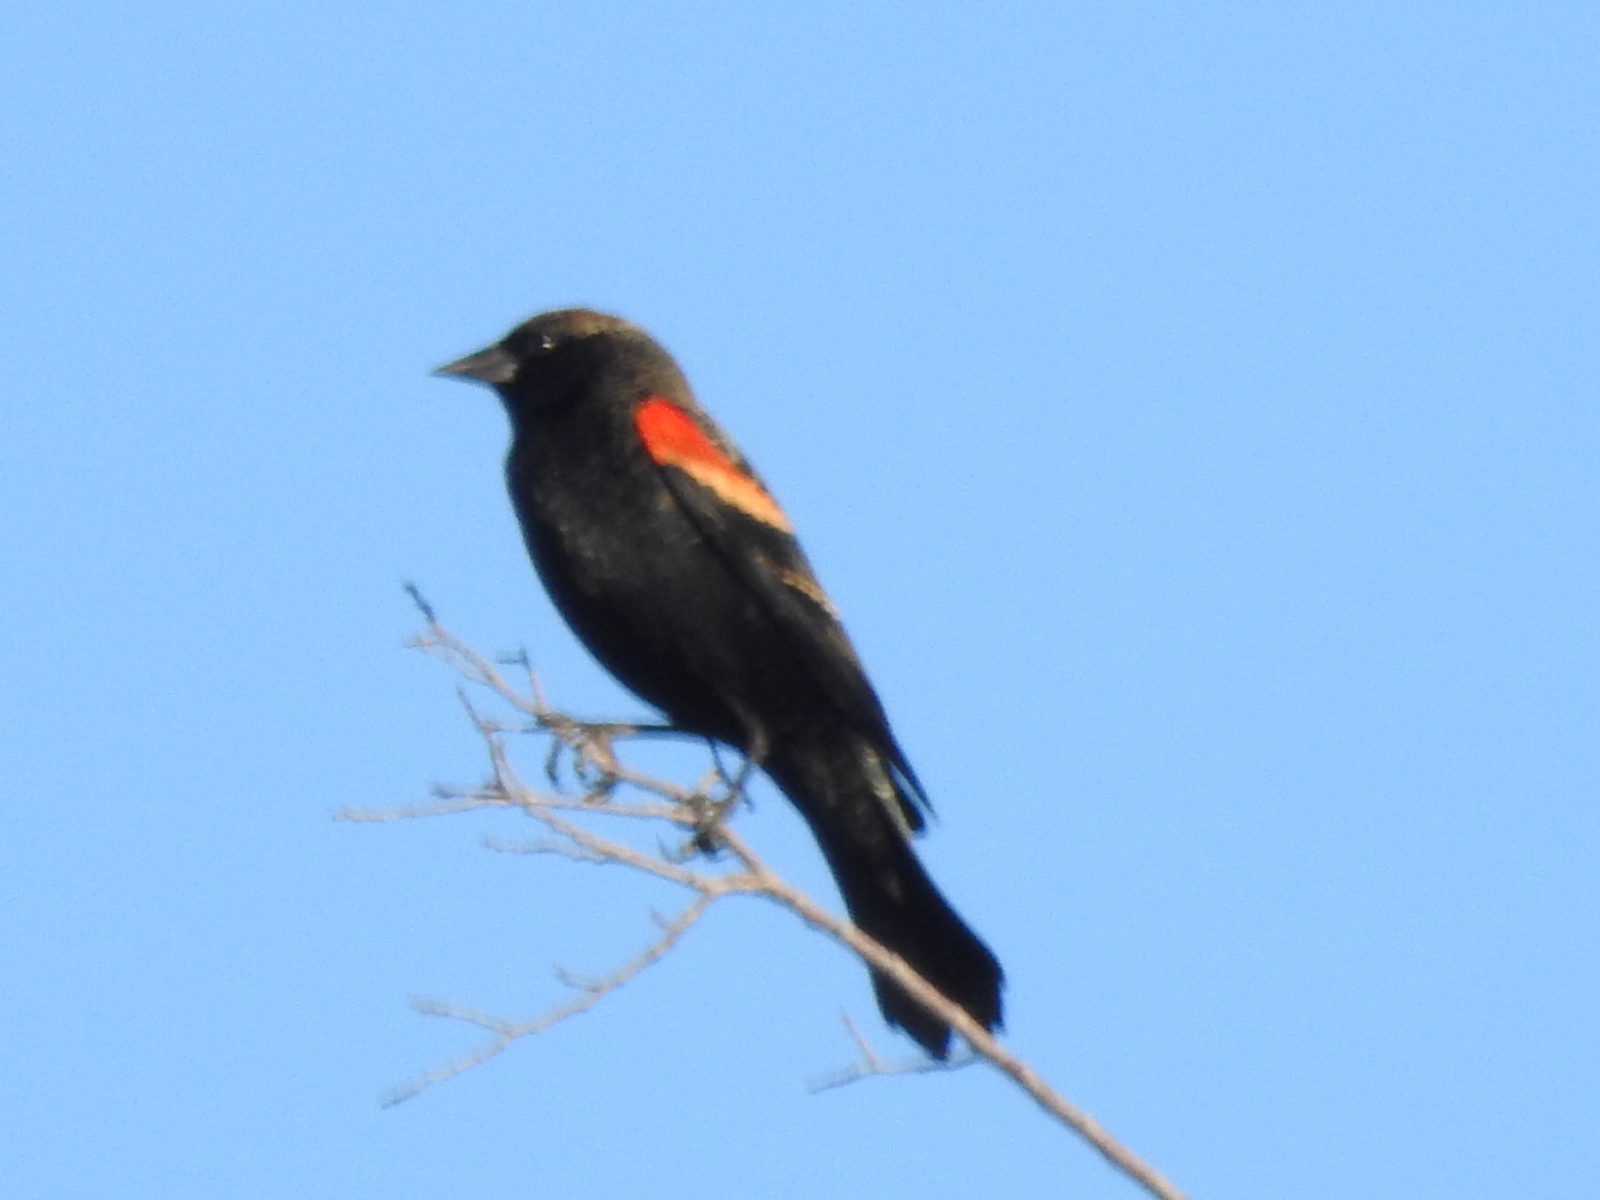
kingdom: Animalia
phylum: Chordata
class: Aves
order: Passeriformes
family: Icteridae
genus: Agelaius
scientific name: Agelaius phoeniceus
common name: Red-winged blackbird
